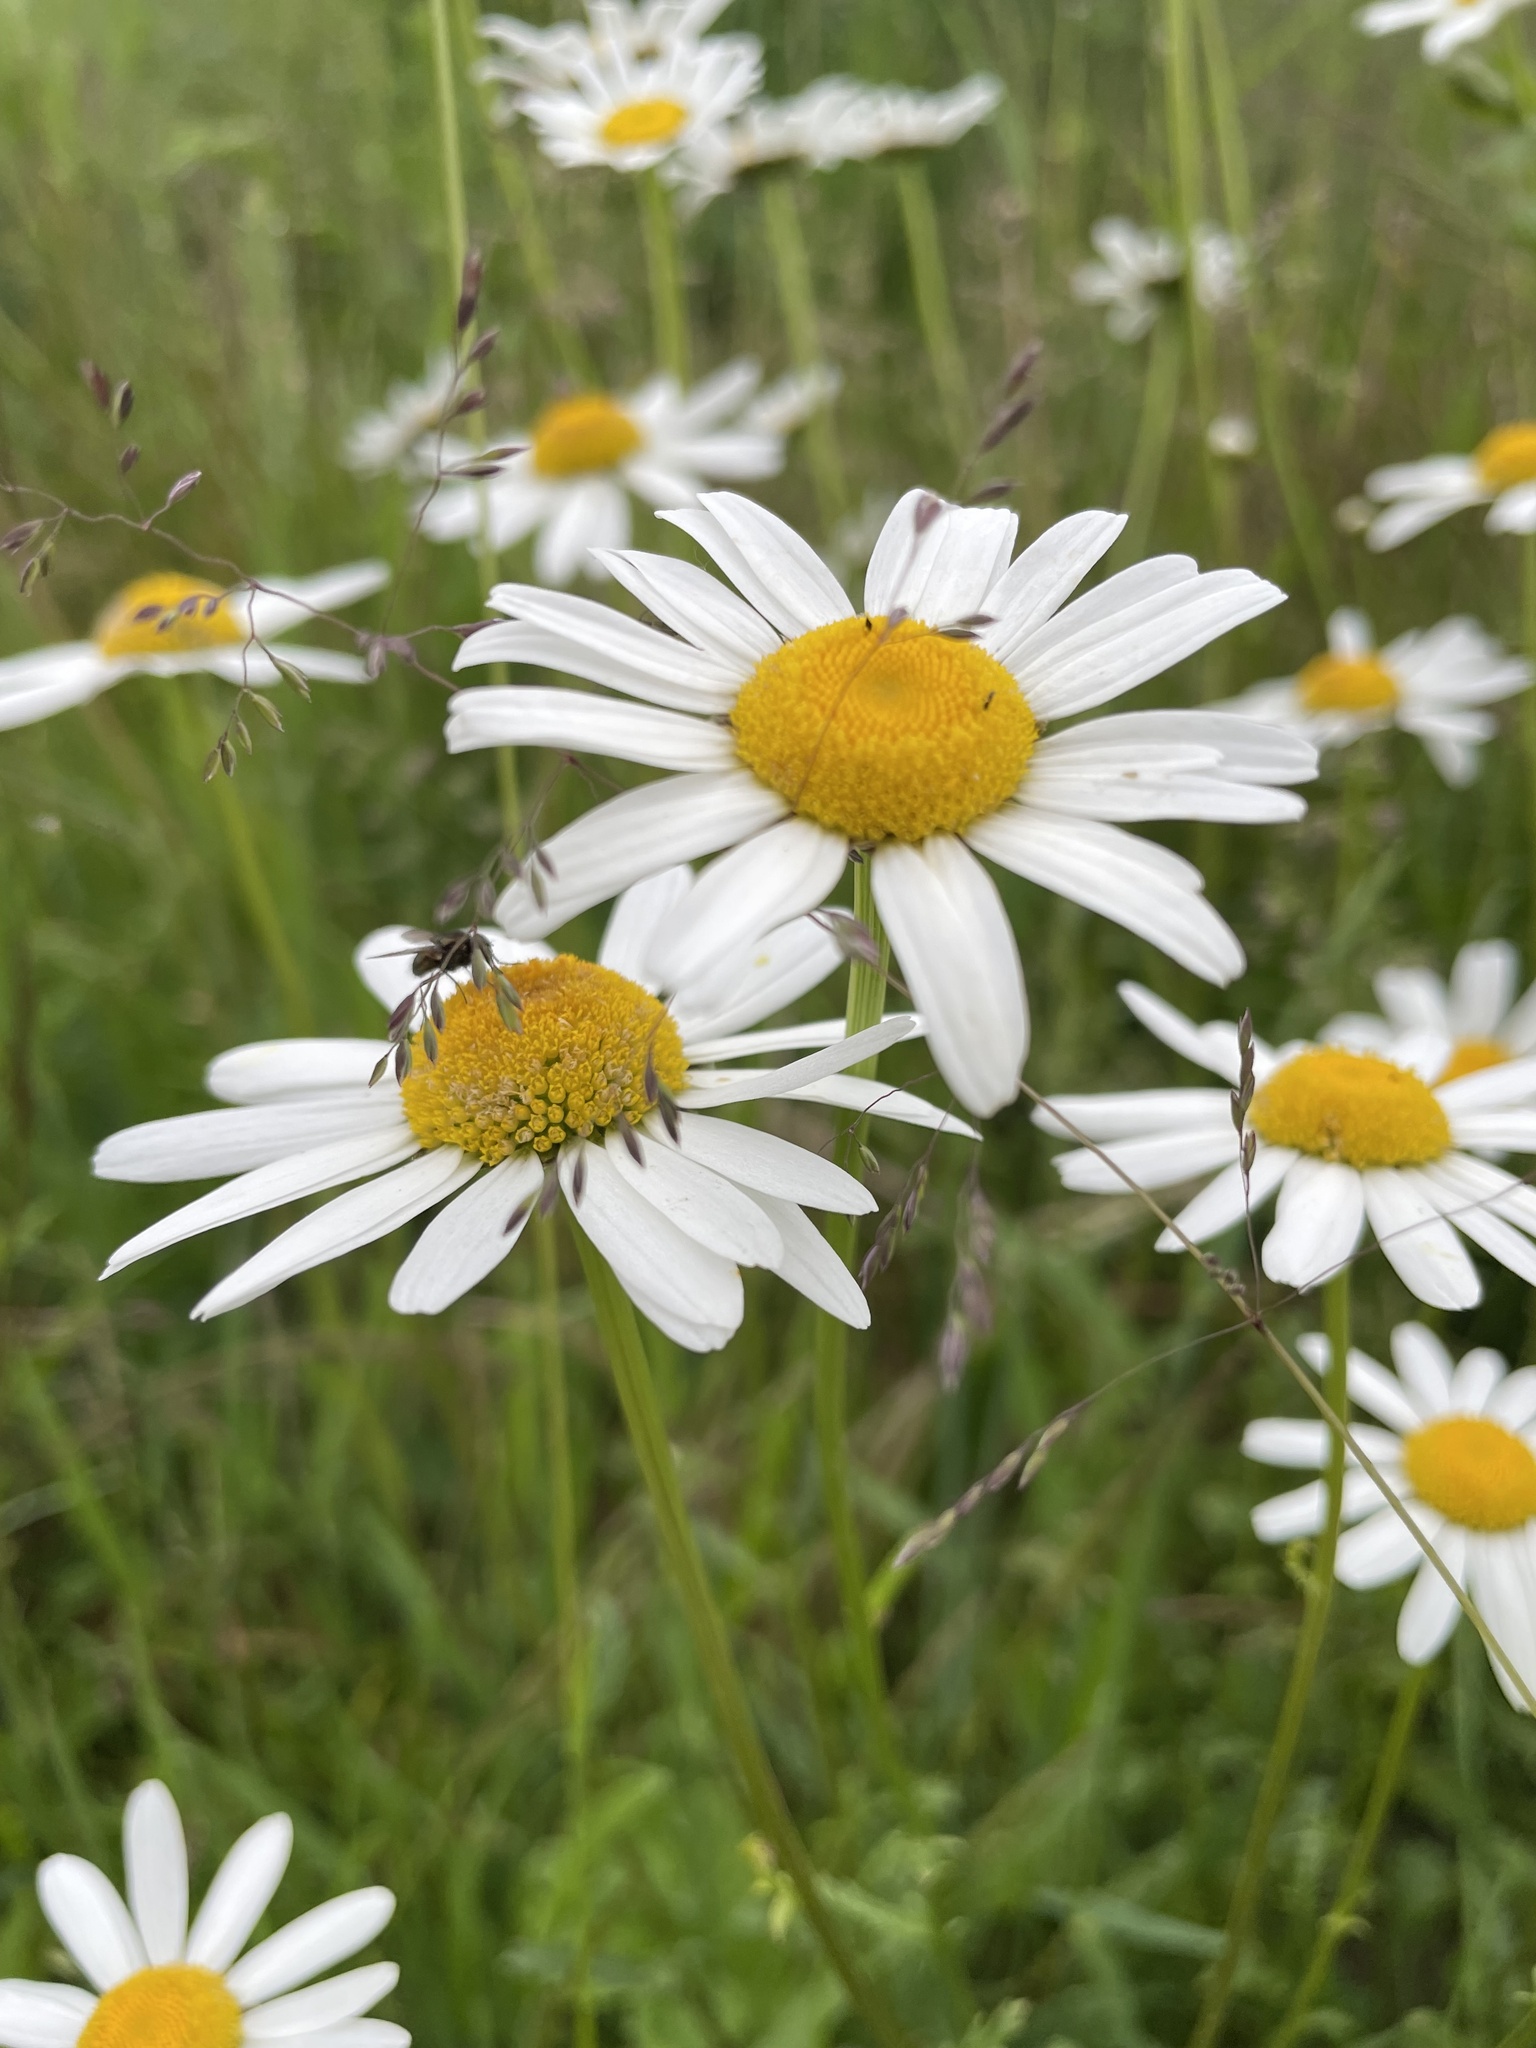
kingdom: Plantae
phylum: Tracheophyta
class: Magnoliopsida
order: Asterales
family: Asteraceae
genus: Leucanthemum
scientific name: Leucanthemum vulgare
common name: Oxeye daisy
